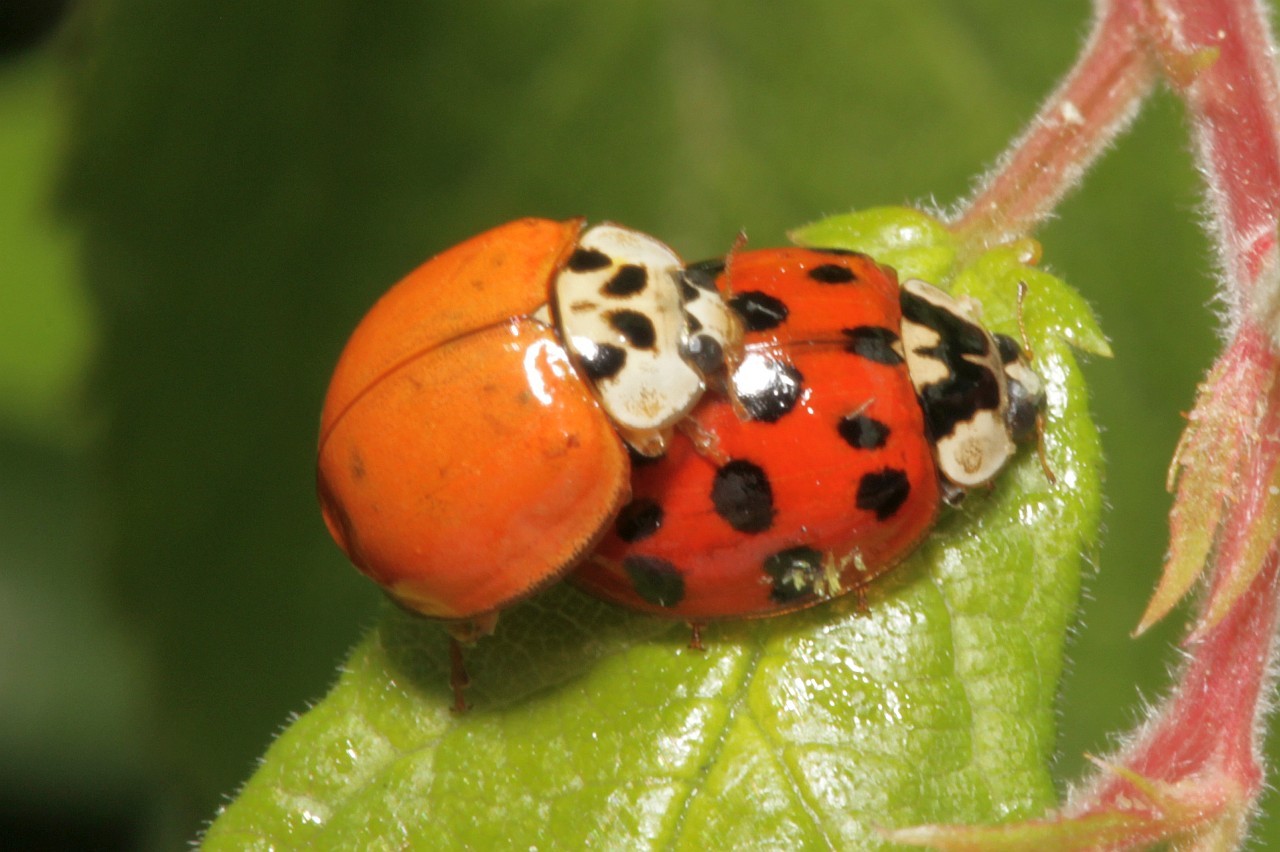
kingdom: Animalia
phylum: Arthropoda
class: Insecta
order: Coleoptera
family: Coccinellidae
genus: Harmonia
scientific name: Harmonia axyridis
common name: Harlequin ladybird
